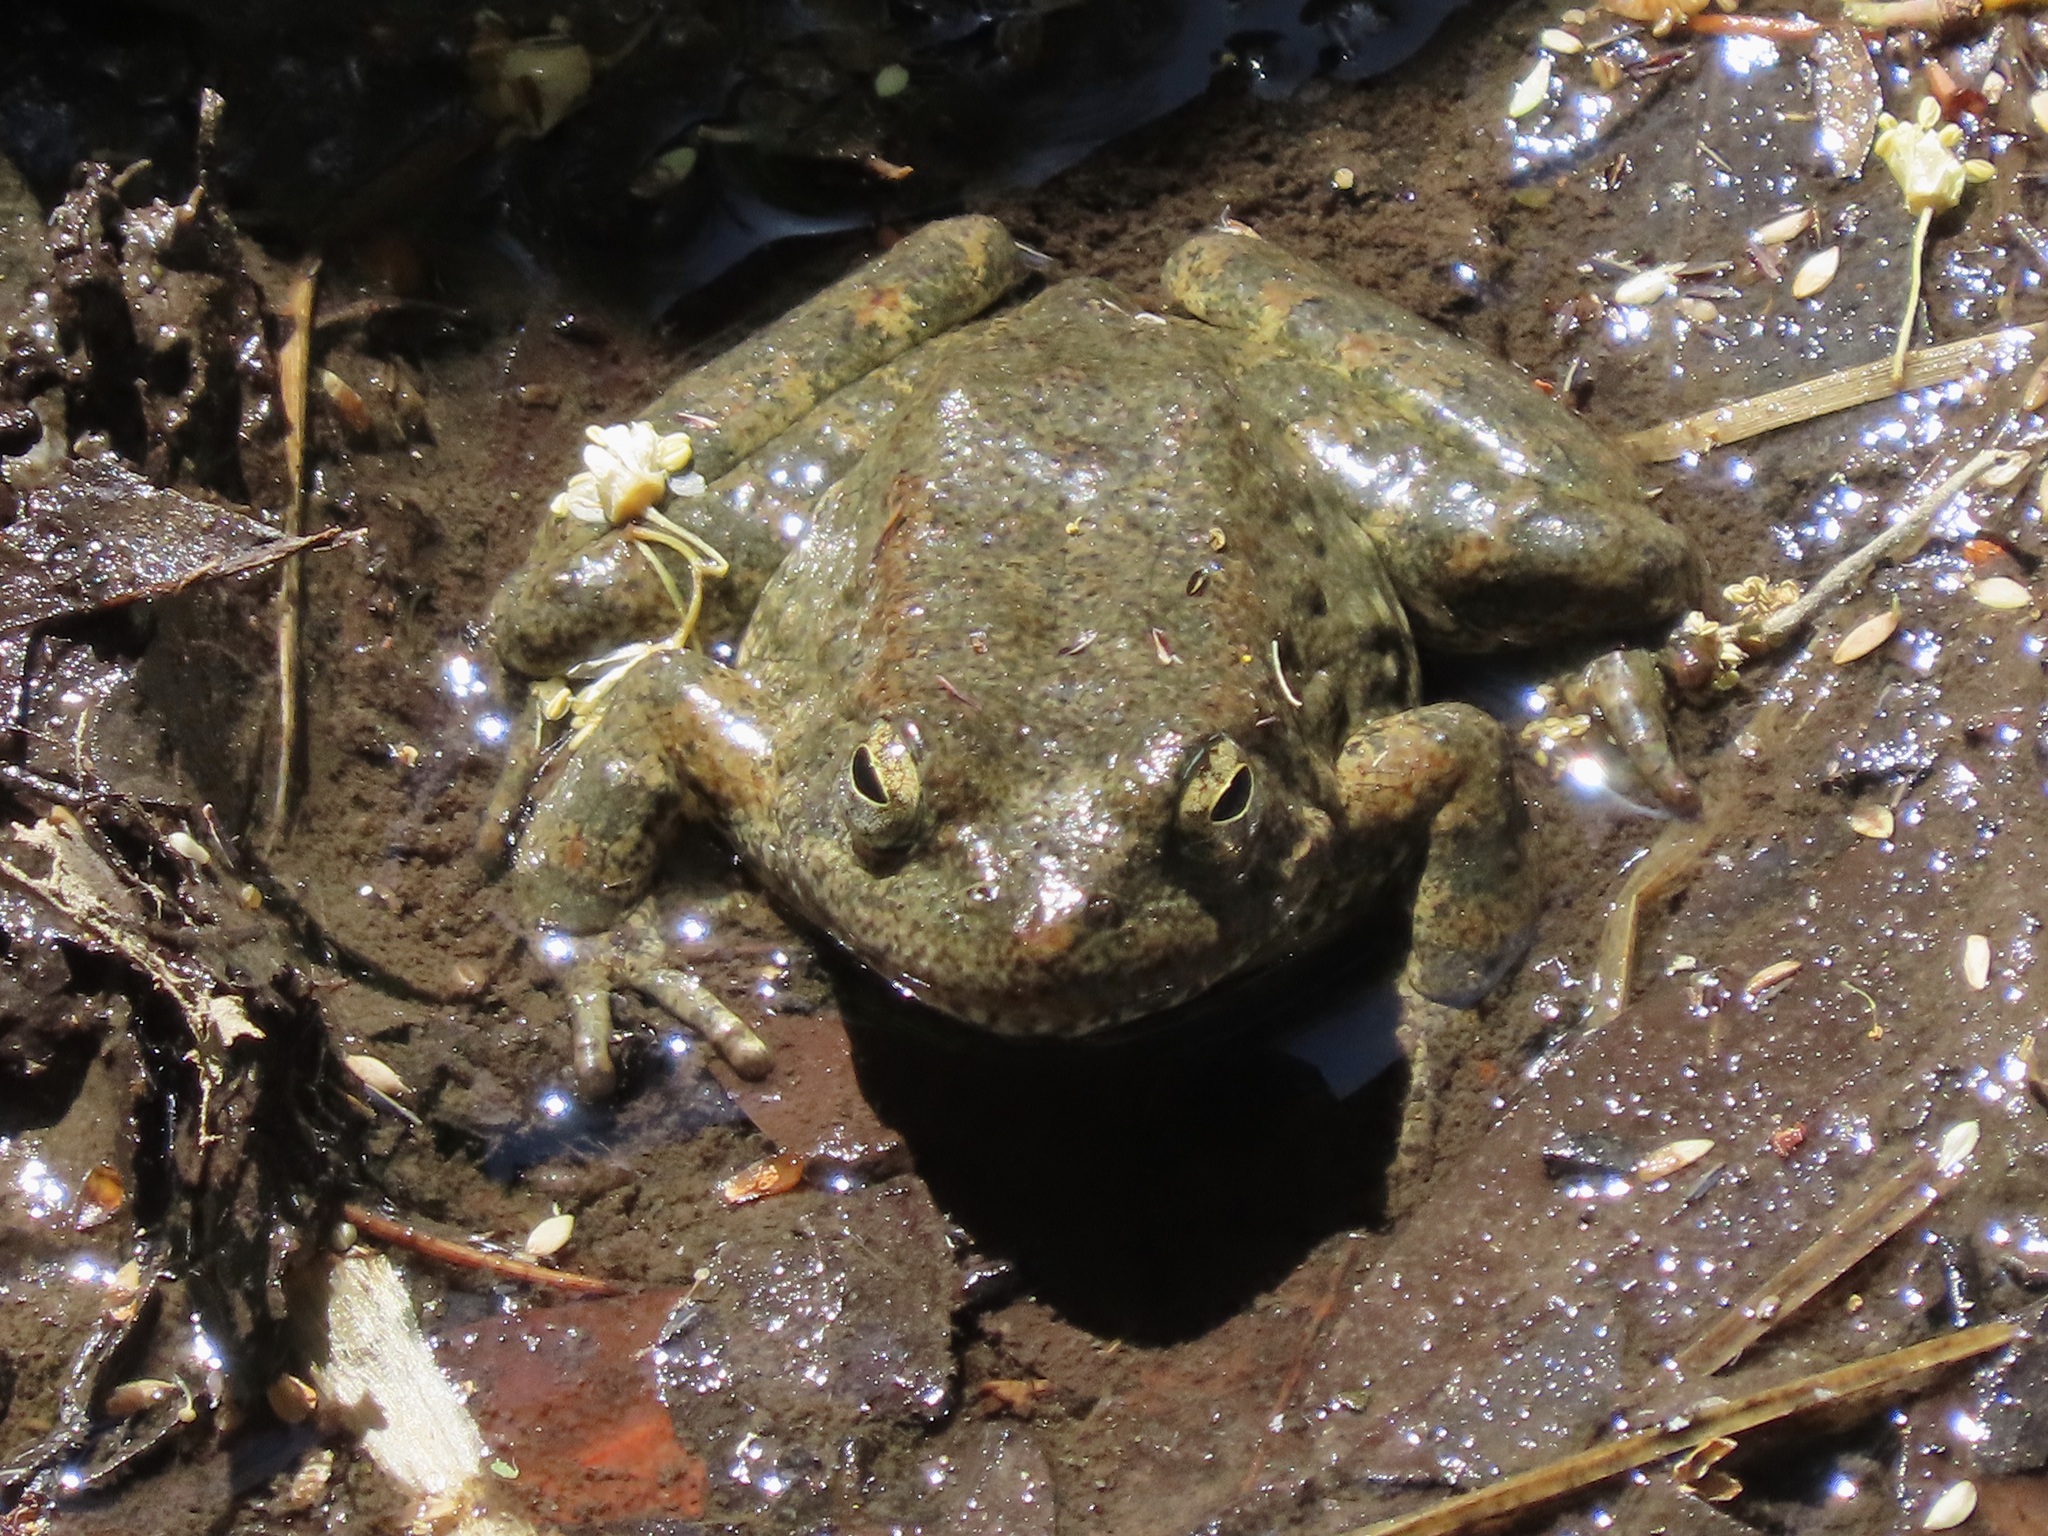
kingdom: Animalia
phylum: Chordata
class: Amphibia
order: Anura
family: Ranidae
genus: Rana
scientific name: Rana boylii
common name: Foothill yellow-legged frog
